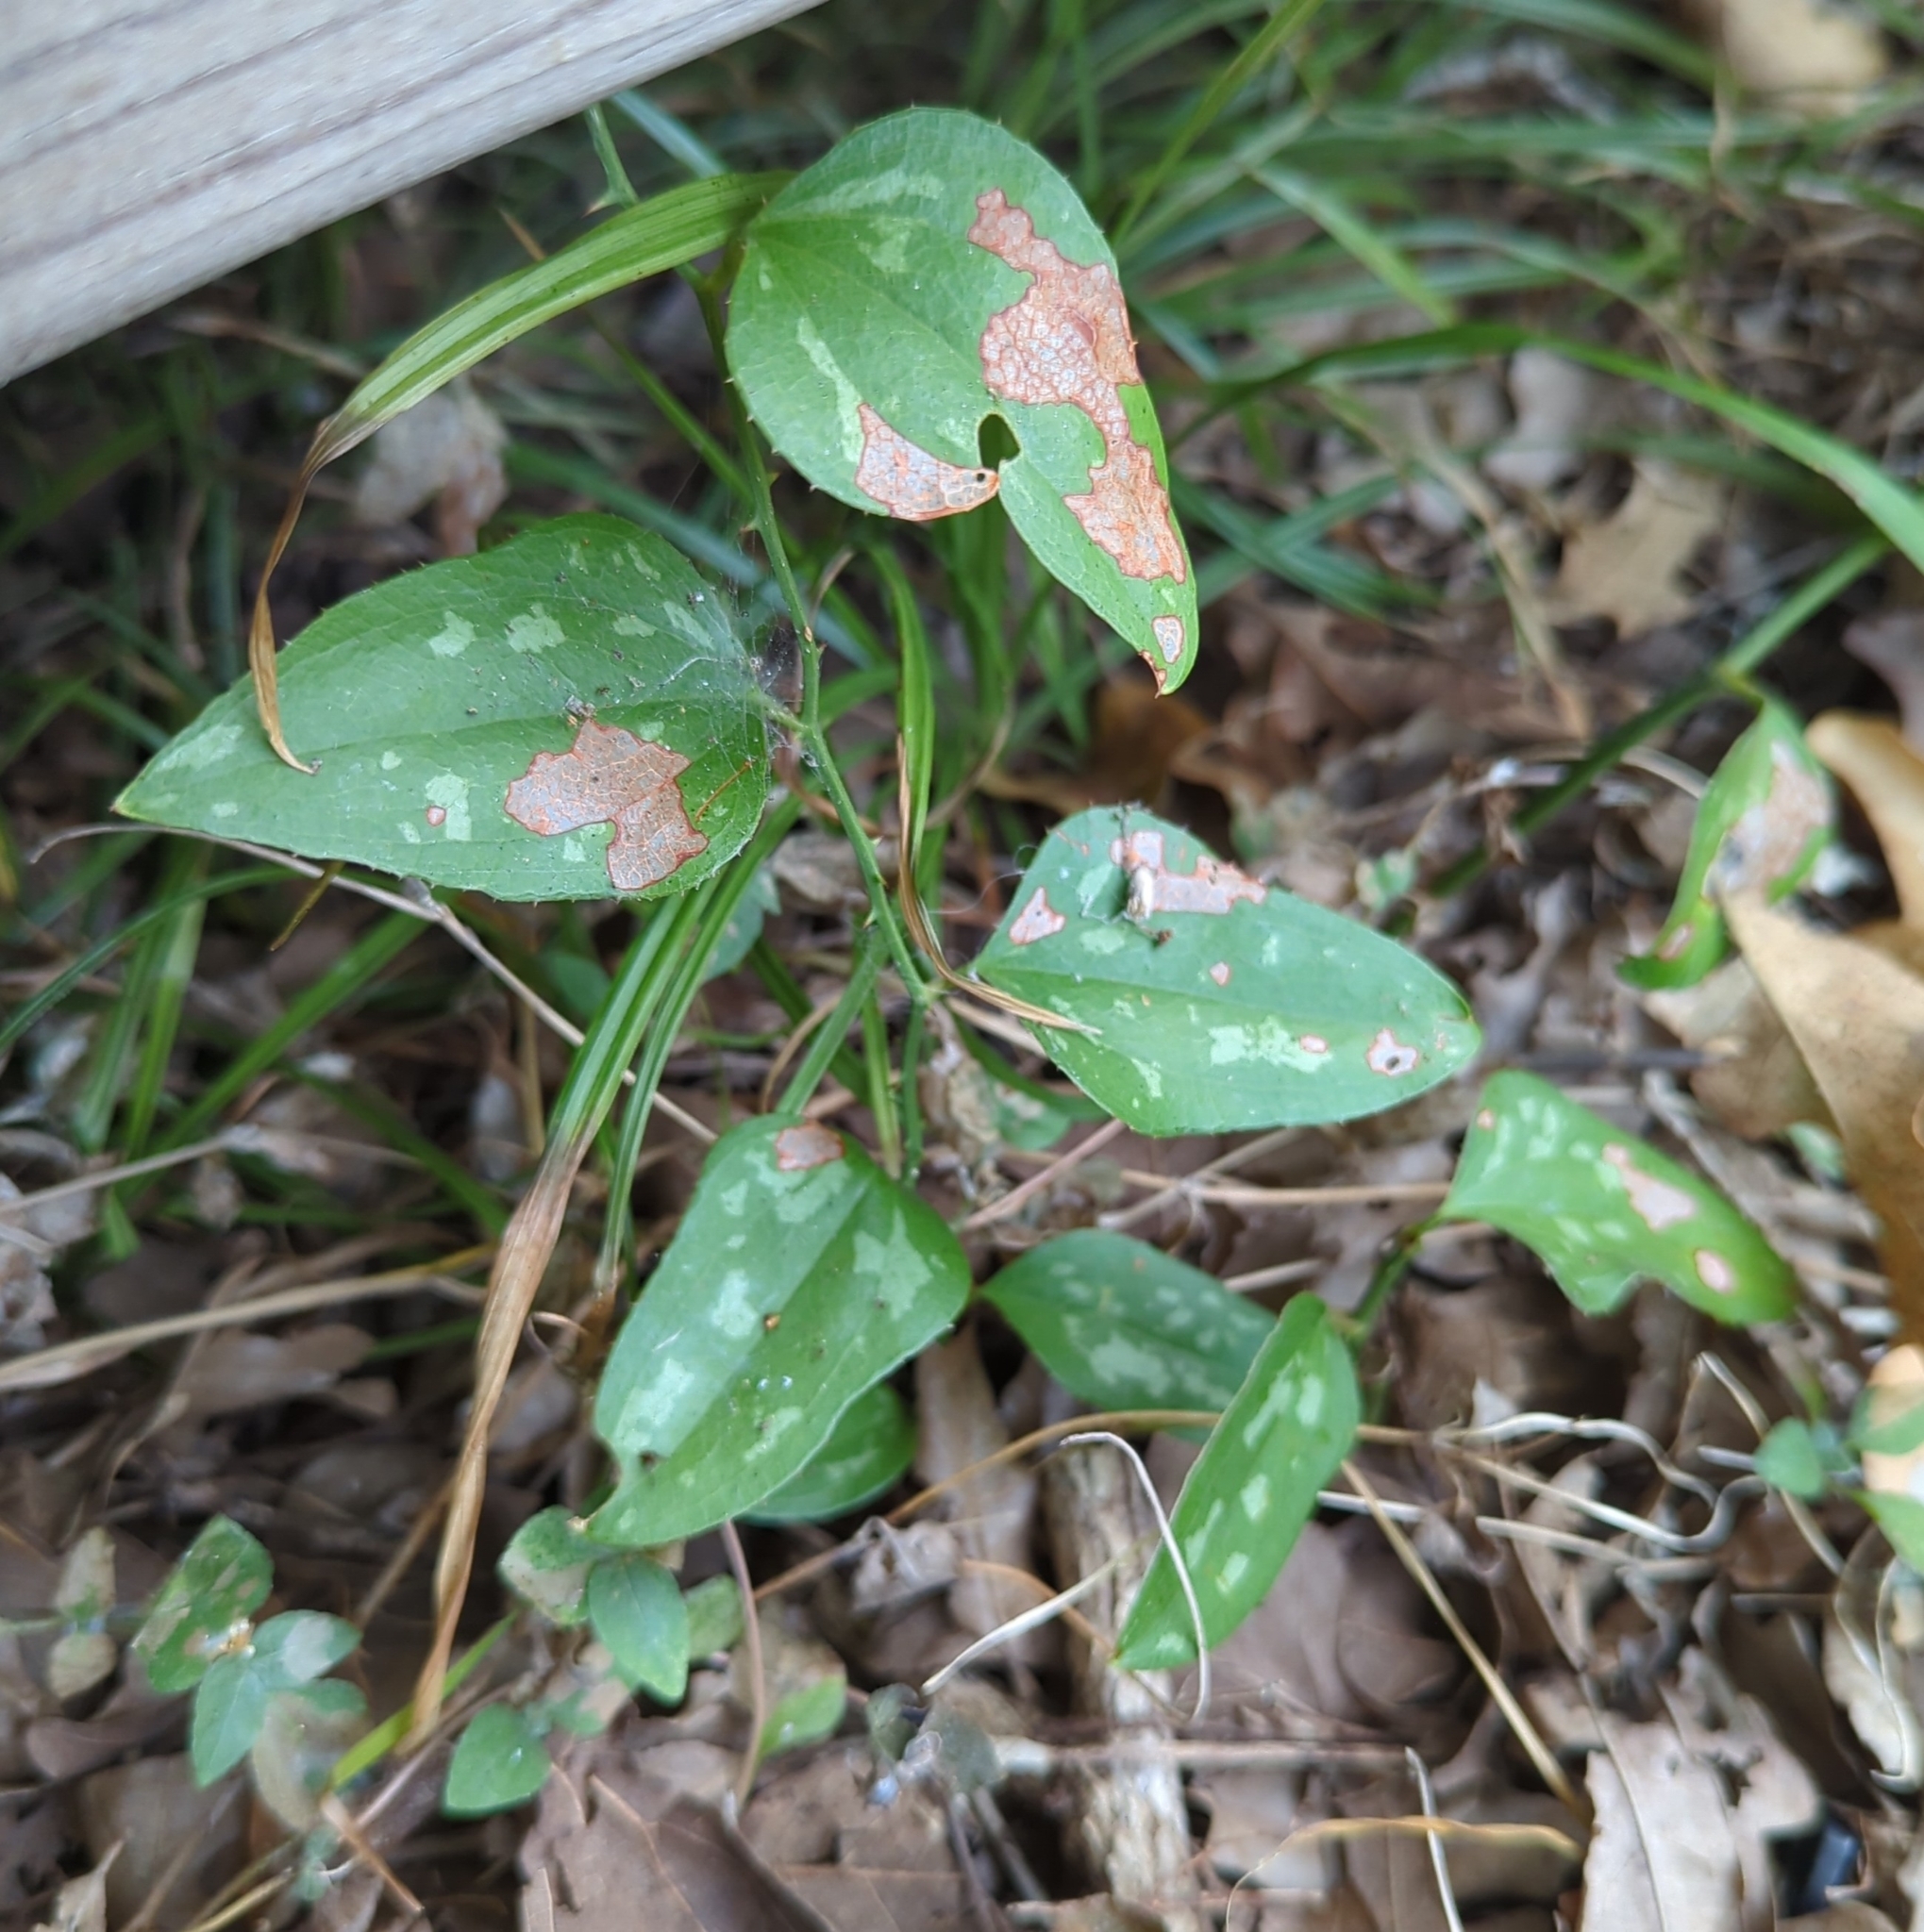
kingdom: Plantae
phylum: Tracheophyta
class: Liliopsida
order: Liliales
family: Smilacaceae
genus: Smilax
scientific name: Smilax bona-nox
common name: Catbrier
